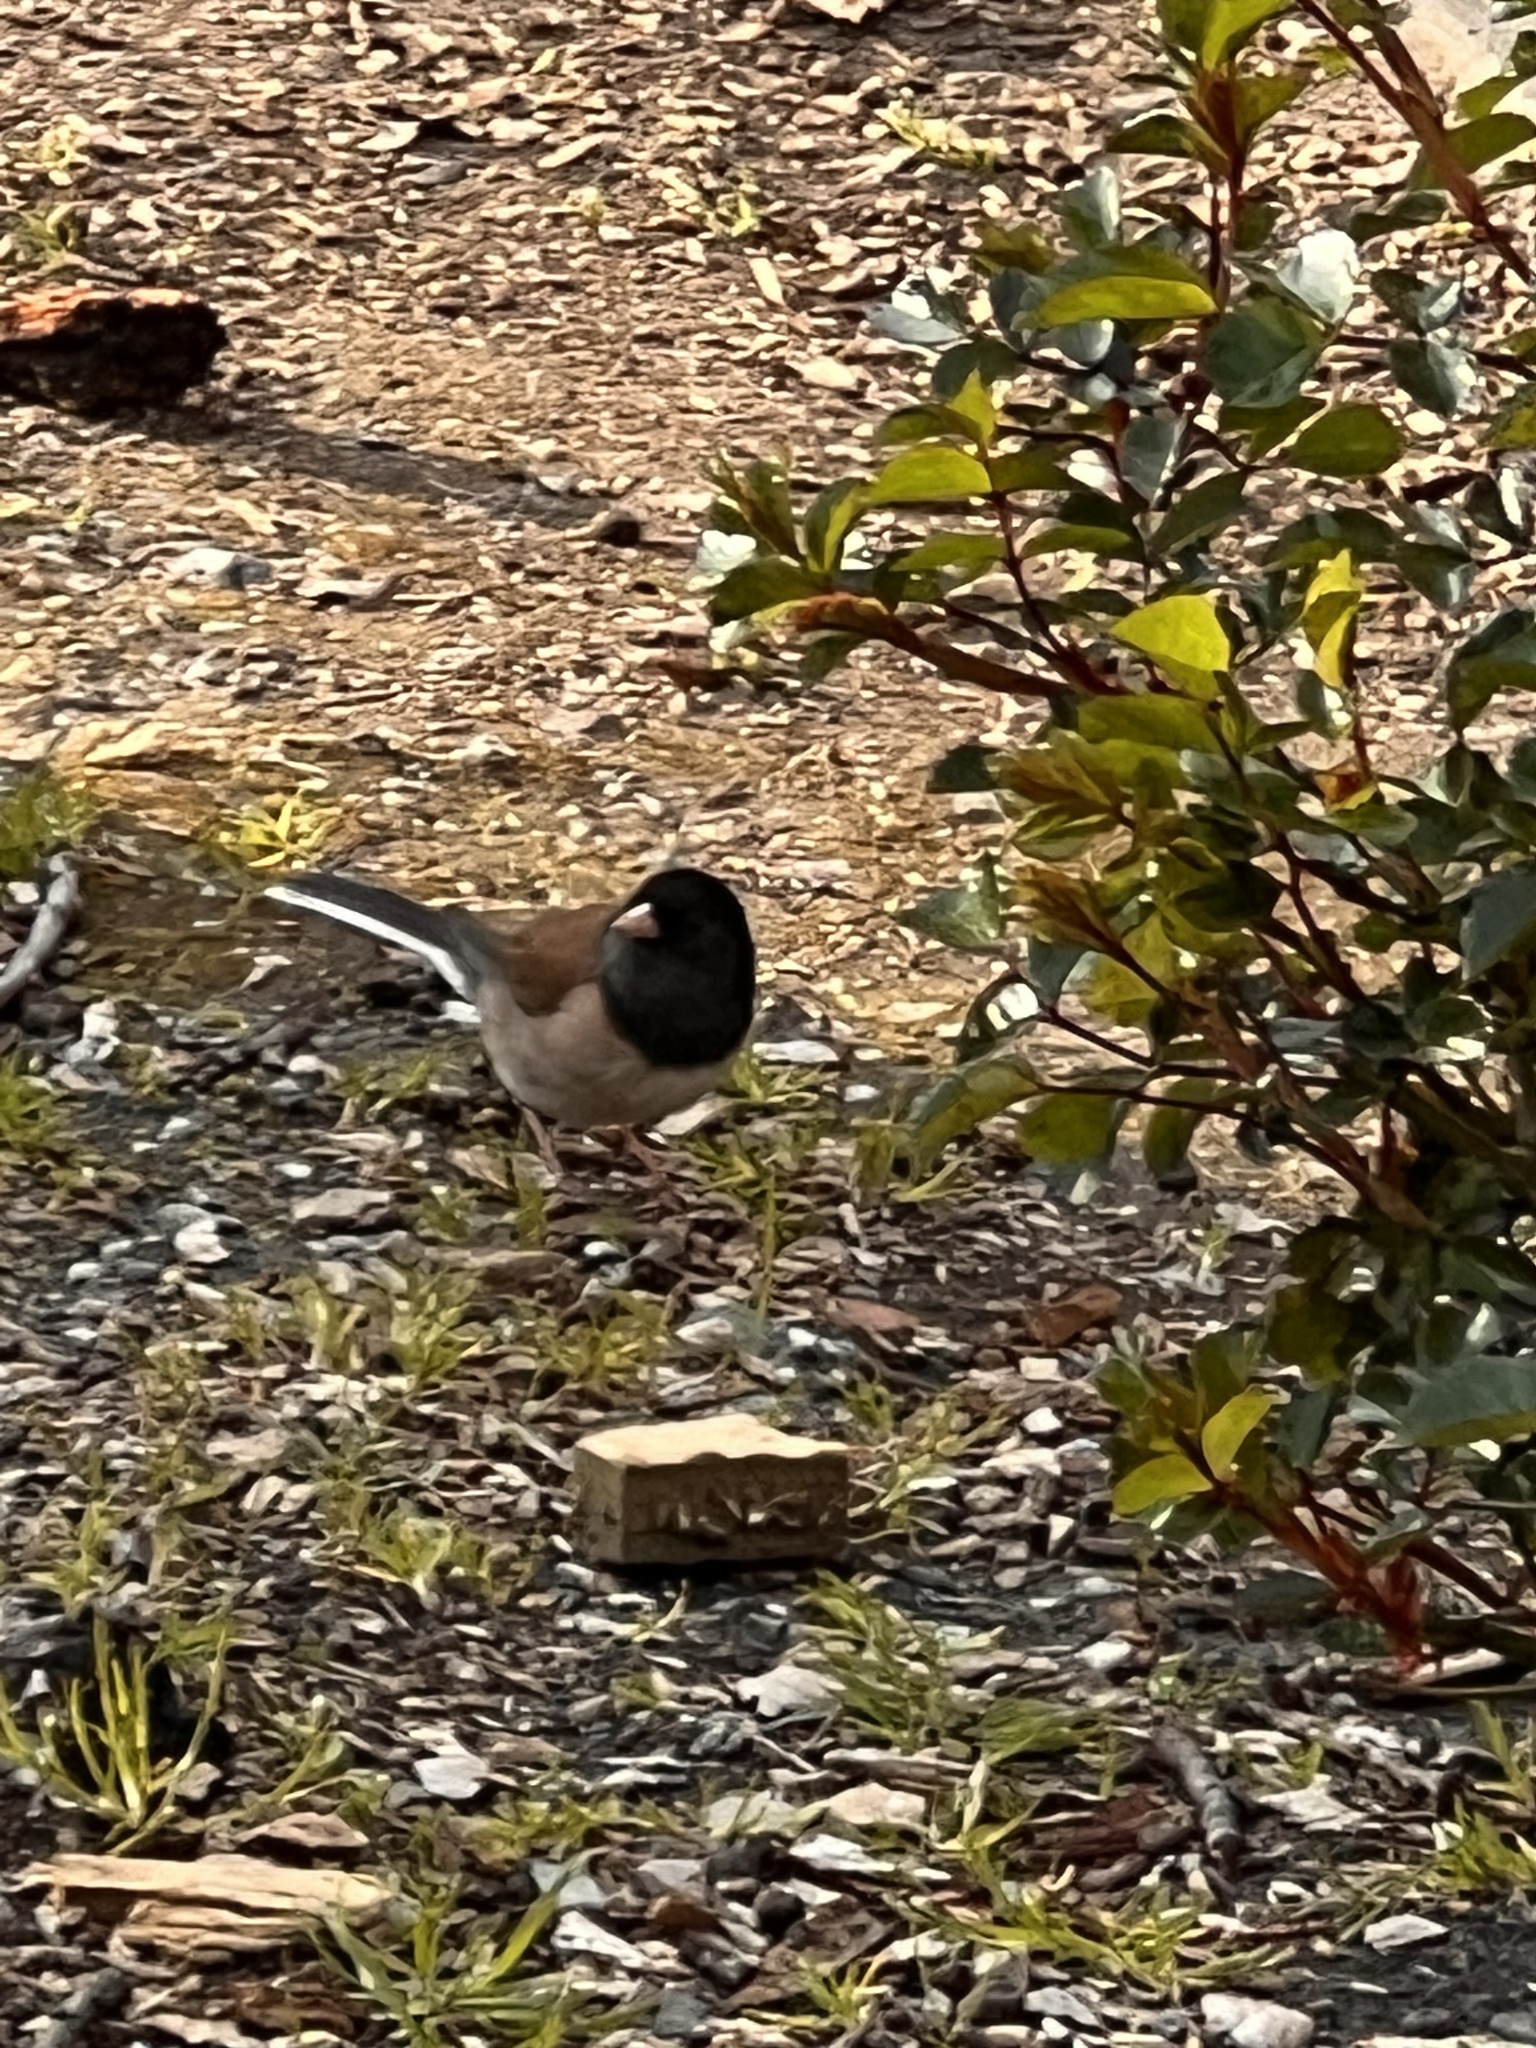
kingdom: Animalia
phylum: Chordata
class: Aves
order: Passeriformes
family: Passerellidae
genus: Junco
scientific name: Junco hyemalis
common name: Dark-eyed junco
